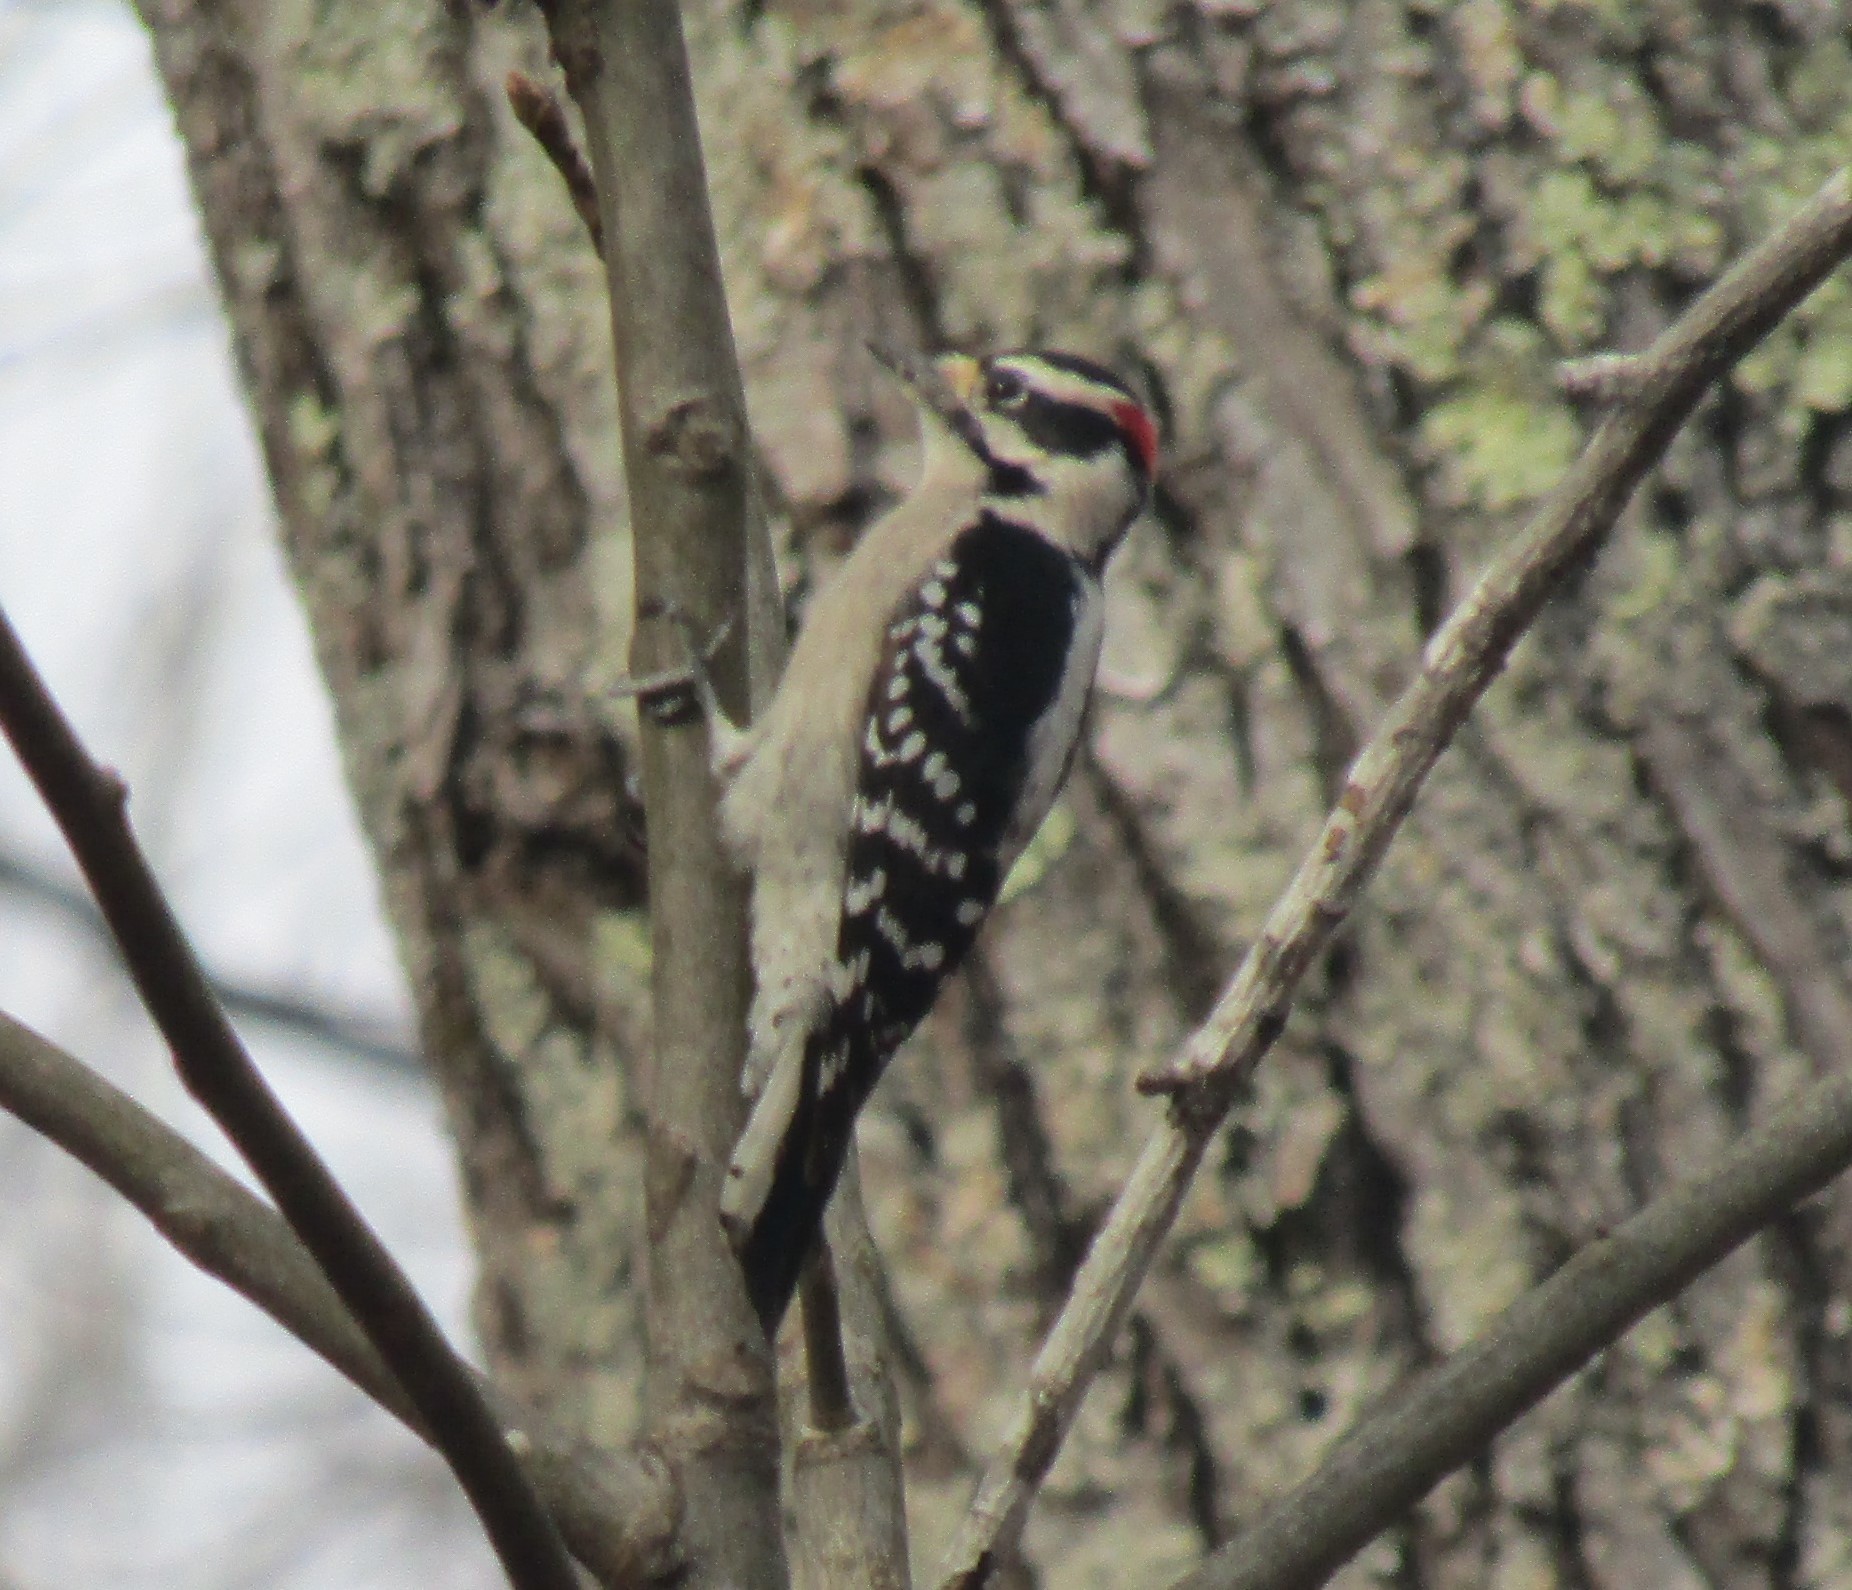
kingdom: Animalia
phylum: Chordata
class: Aves
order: Piciformes
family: Picidae
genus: Dryobates
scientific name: Dryobates pubescens
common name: Downy woodpecker
